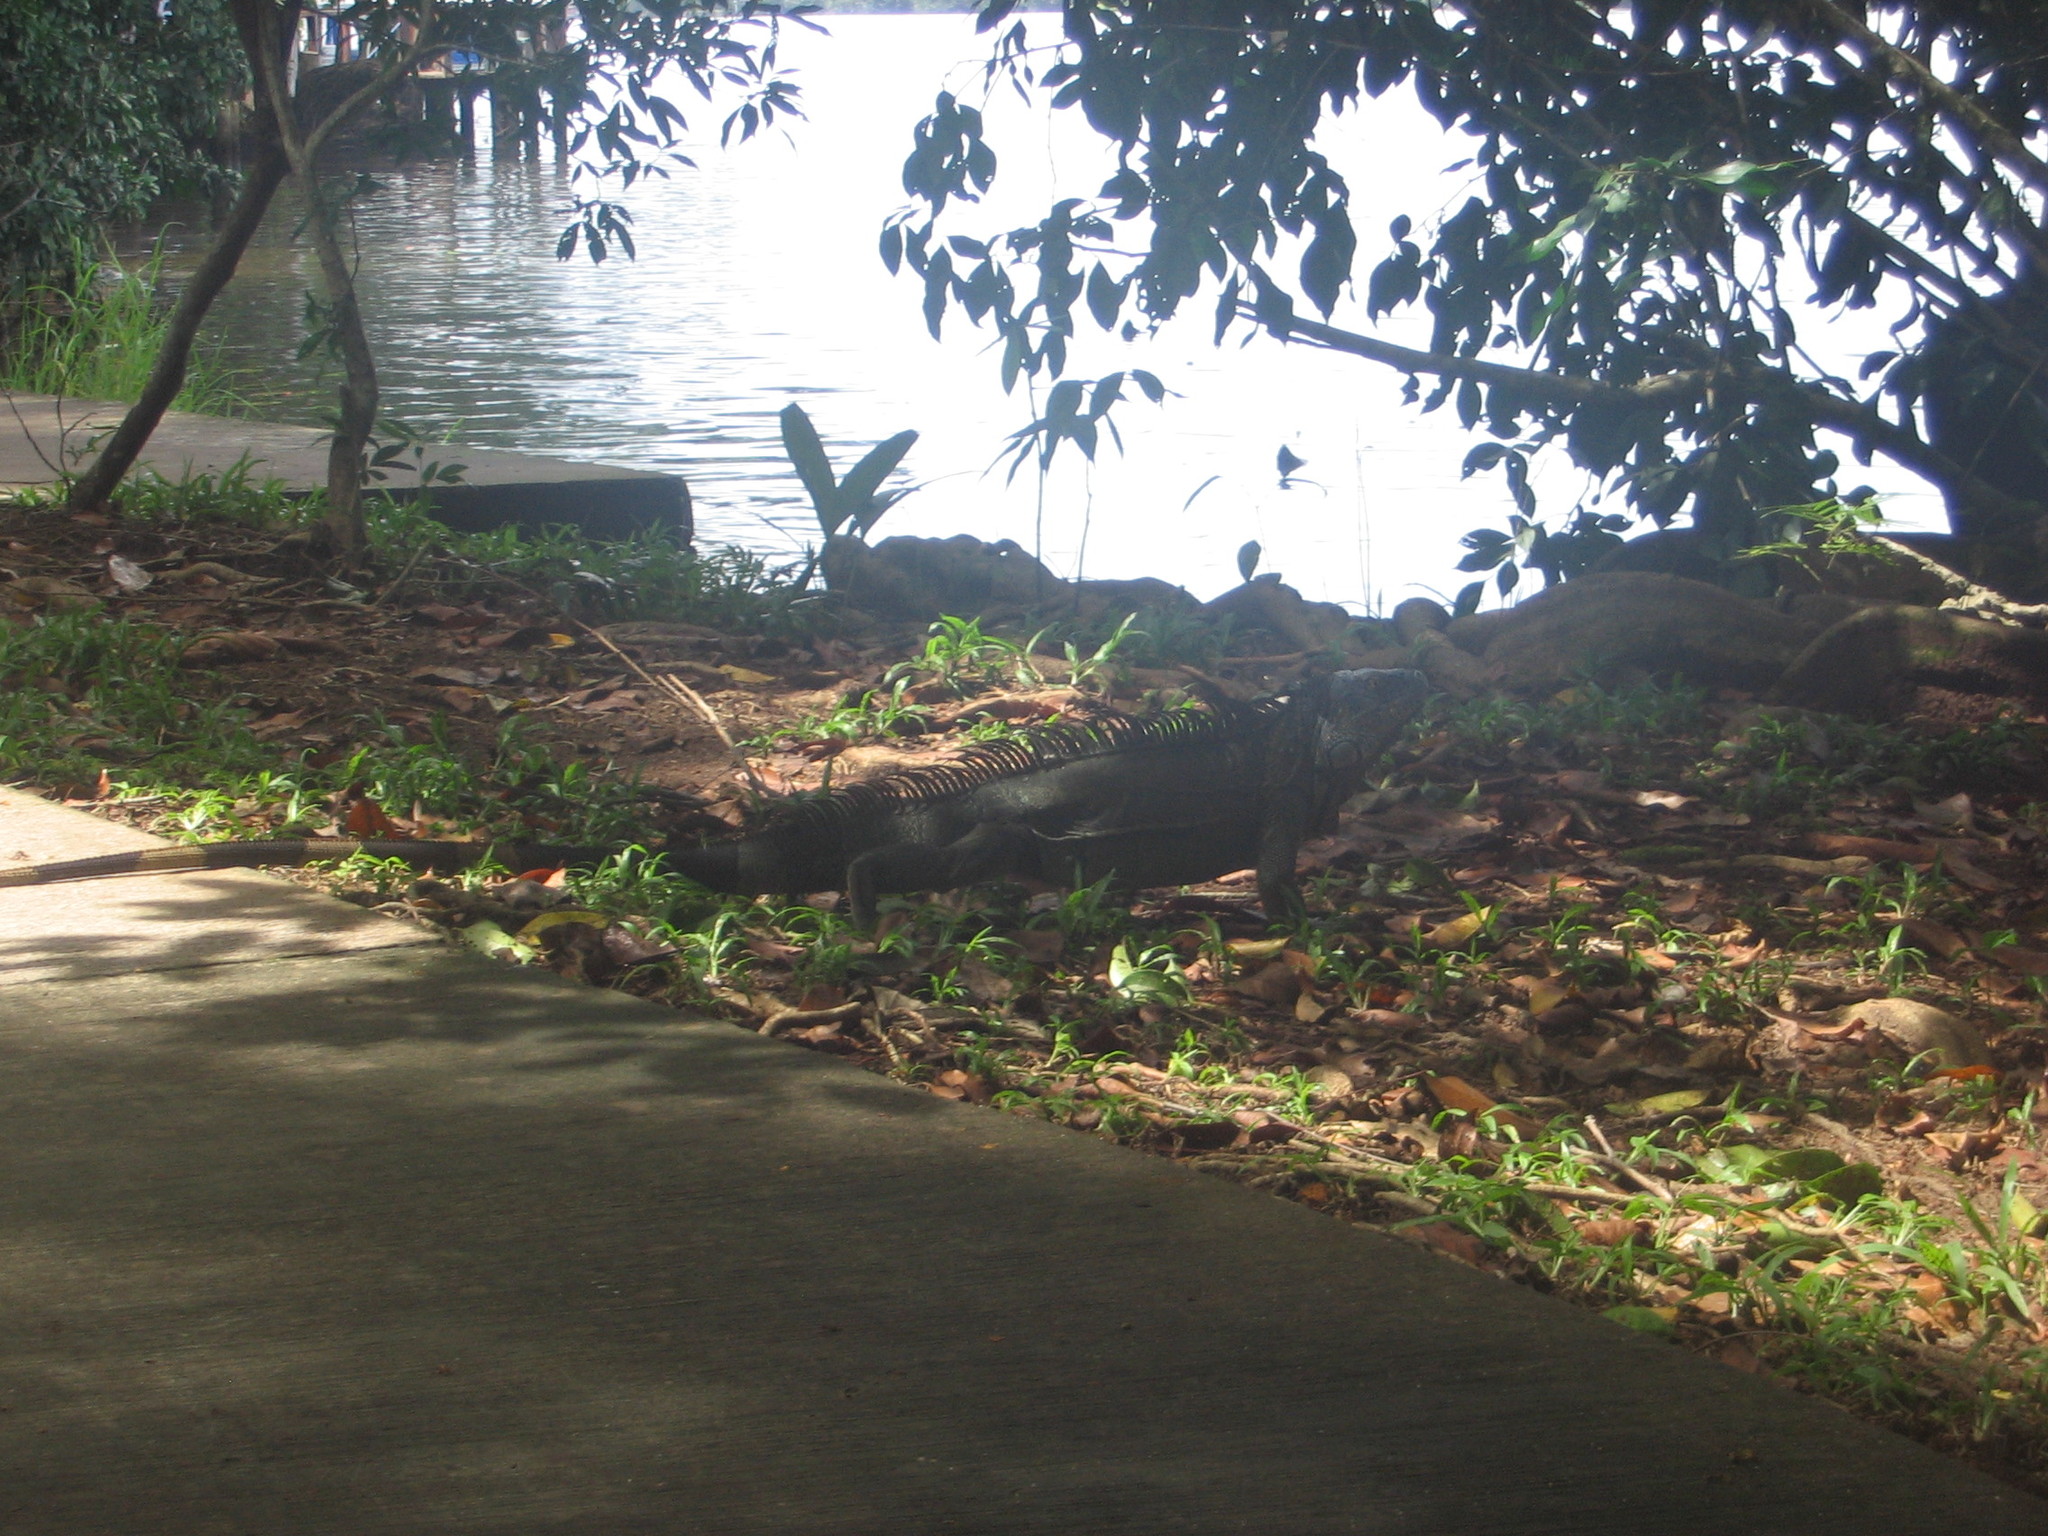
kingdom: Animalia
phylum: Chordata
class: Squamata
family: Iguanidae
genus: Iguana
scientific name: Iguana iguana
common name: Green iguana
